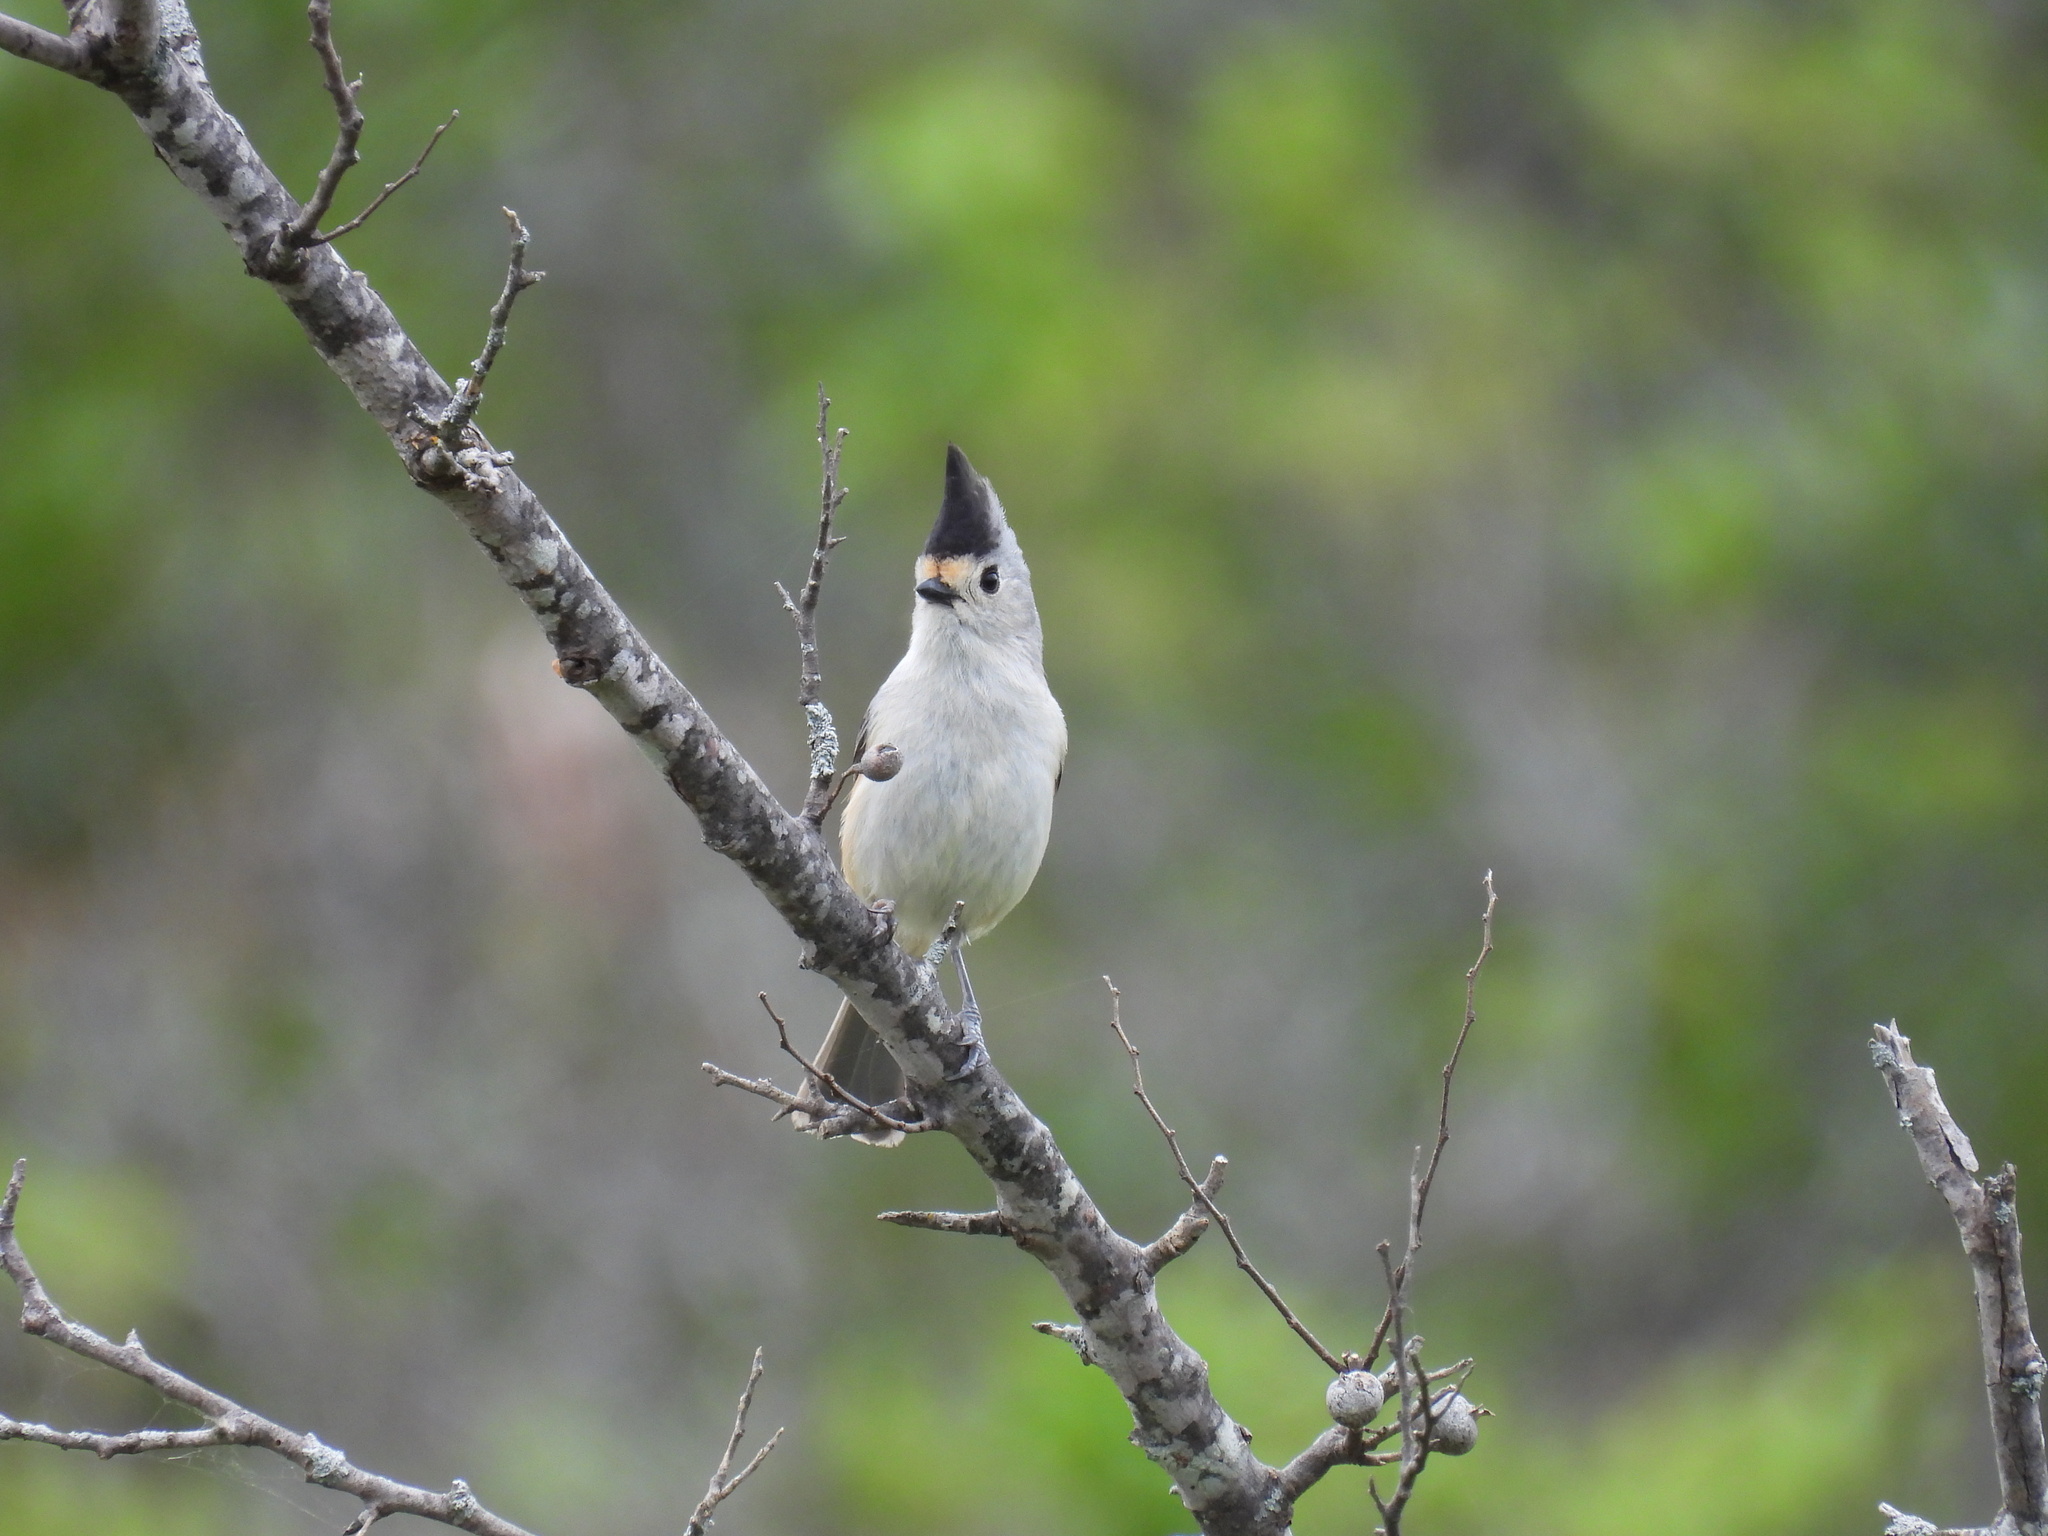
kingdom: Animalia
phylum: Chordata
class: Aves
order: Passeriformes
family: Paridae
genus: Baeolophus
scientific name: Baeolophus atricristatus
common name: Black-crested titmouse
